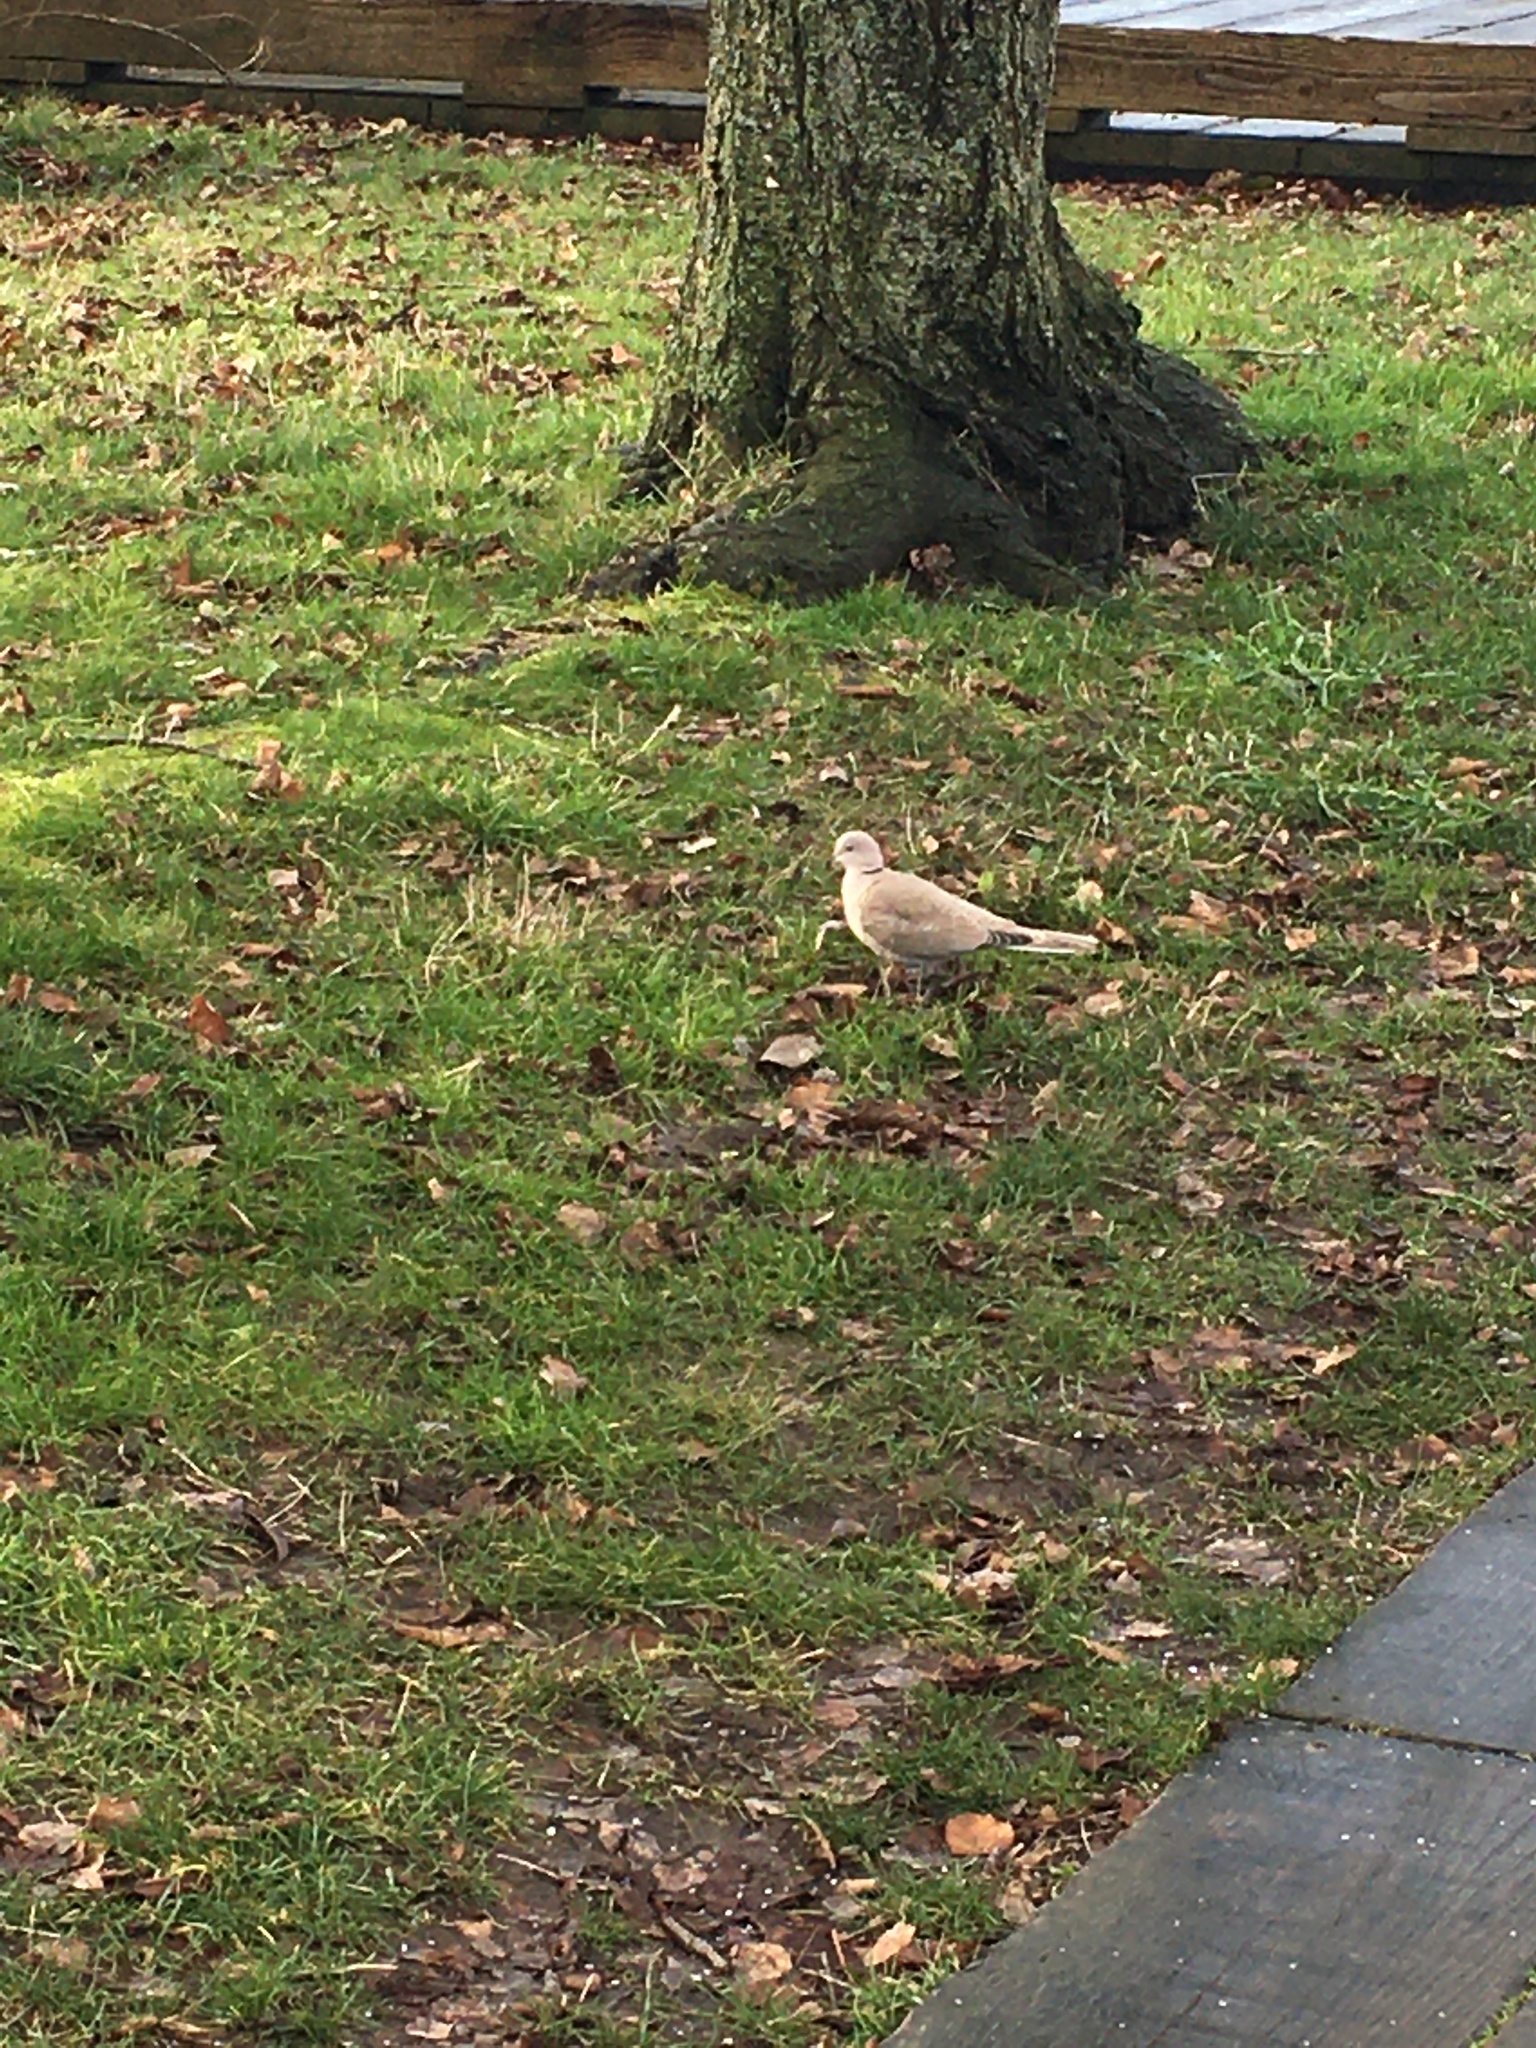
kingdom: Animalia
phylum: Chordata
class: Aves
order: Columbiformes
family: Columbidae
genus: Streptopelia
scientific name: Streptopelia decaocto
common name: Eurasian collared dove
